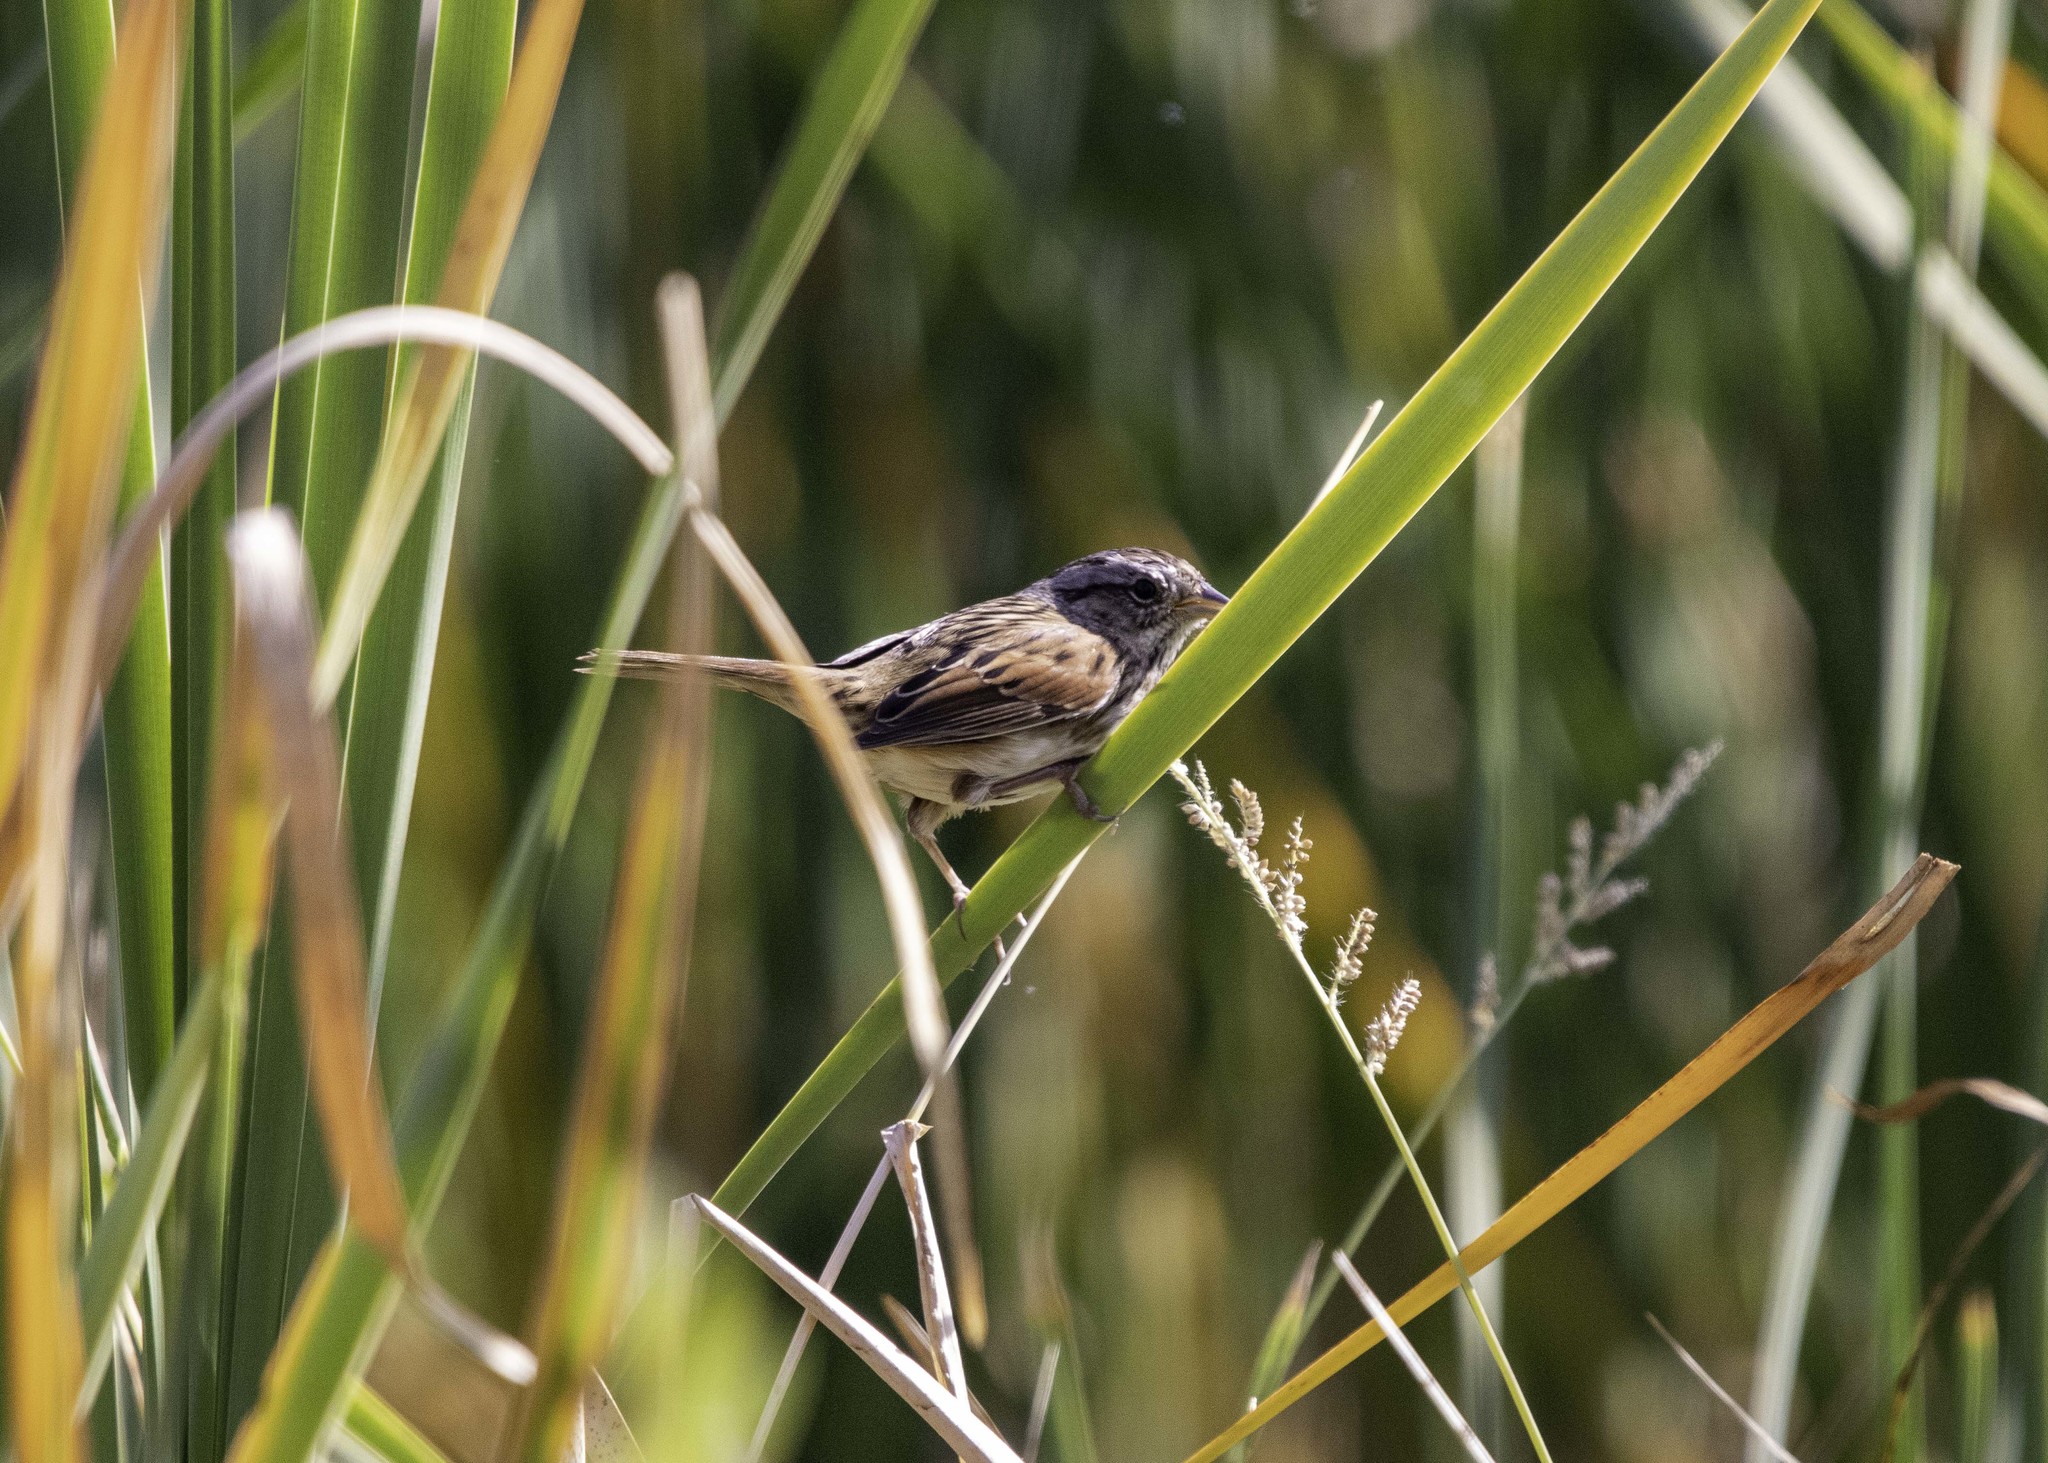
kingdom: Animalia
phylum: Chordata
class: Aves
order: Passeriformes
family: Passerellidae
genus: Melospiza
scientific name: Melospiza georgiana
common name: Swamp sparrow
